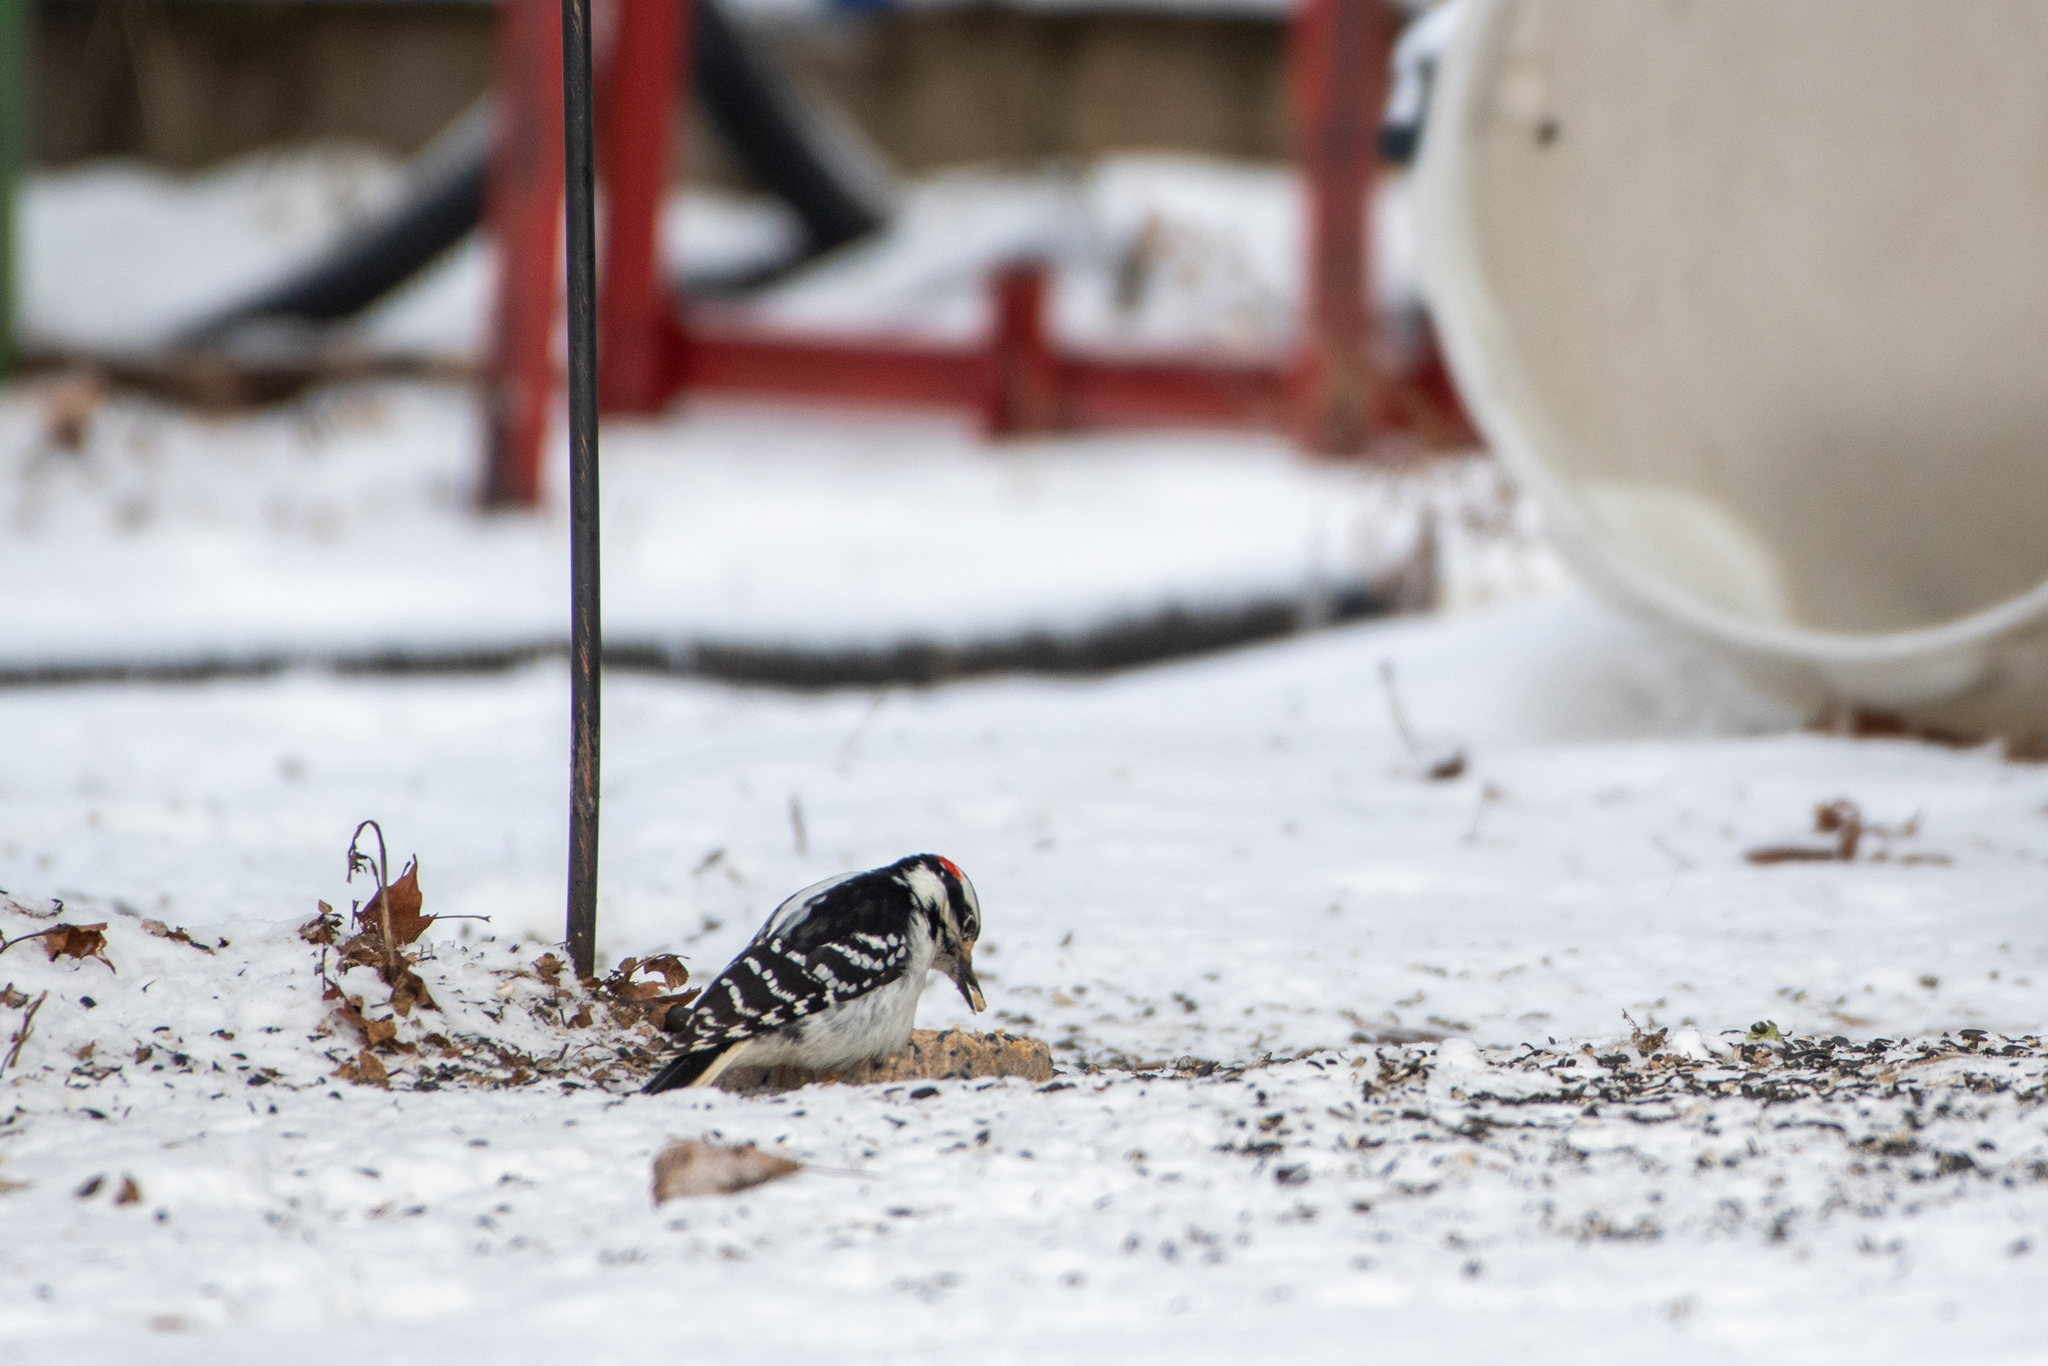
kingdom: Animalia
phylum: Chordata
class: Aves
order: Piciformes
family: Picidae
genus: Leuconotopicus
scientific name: Leuconotopicus villosus
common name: Hairy woodpecker
